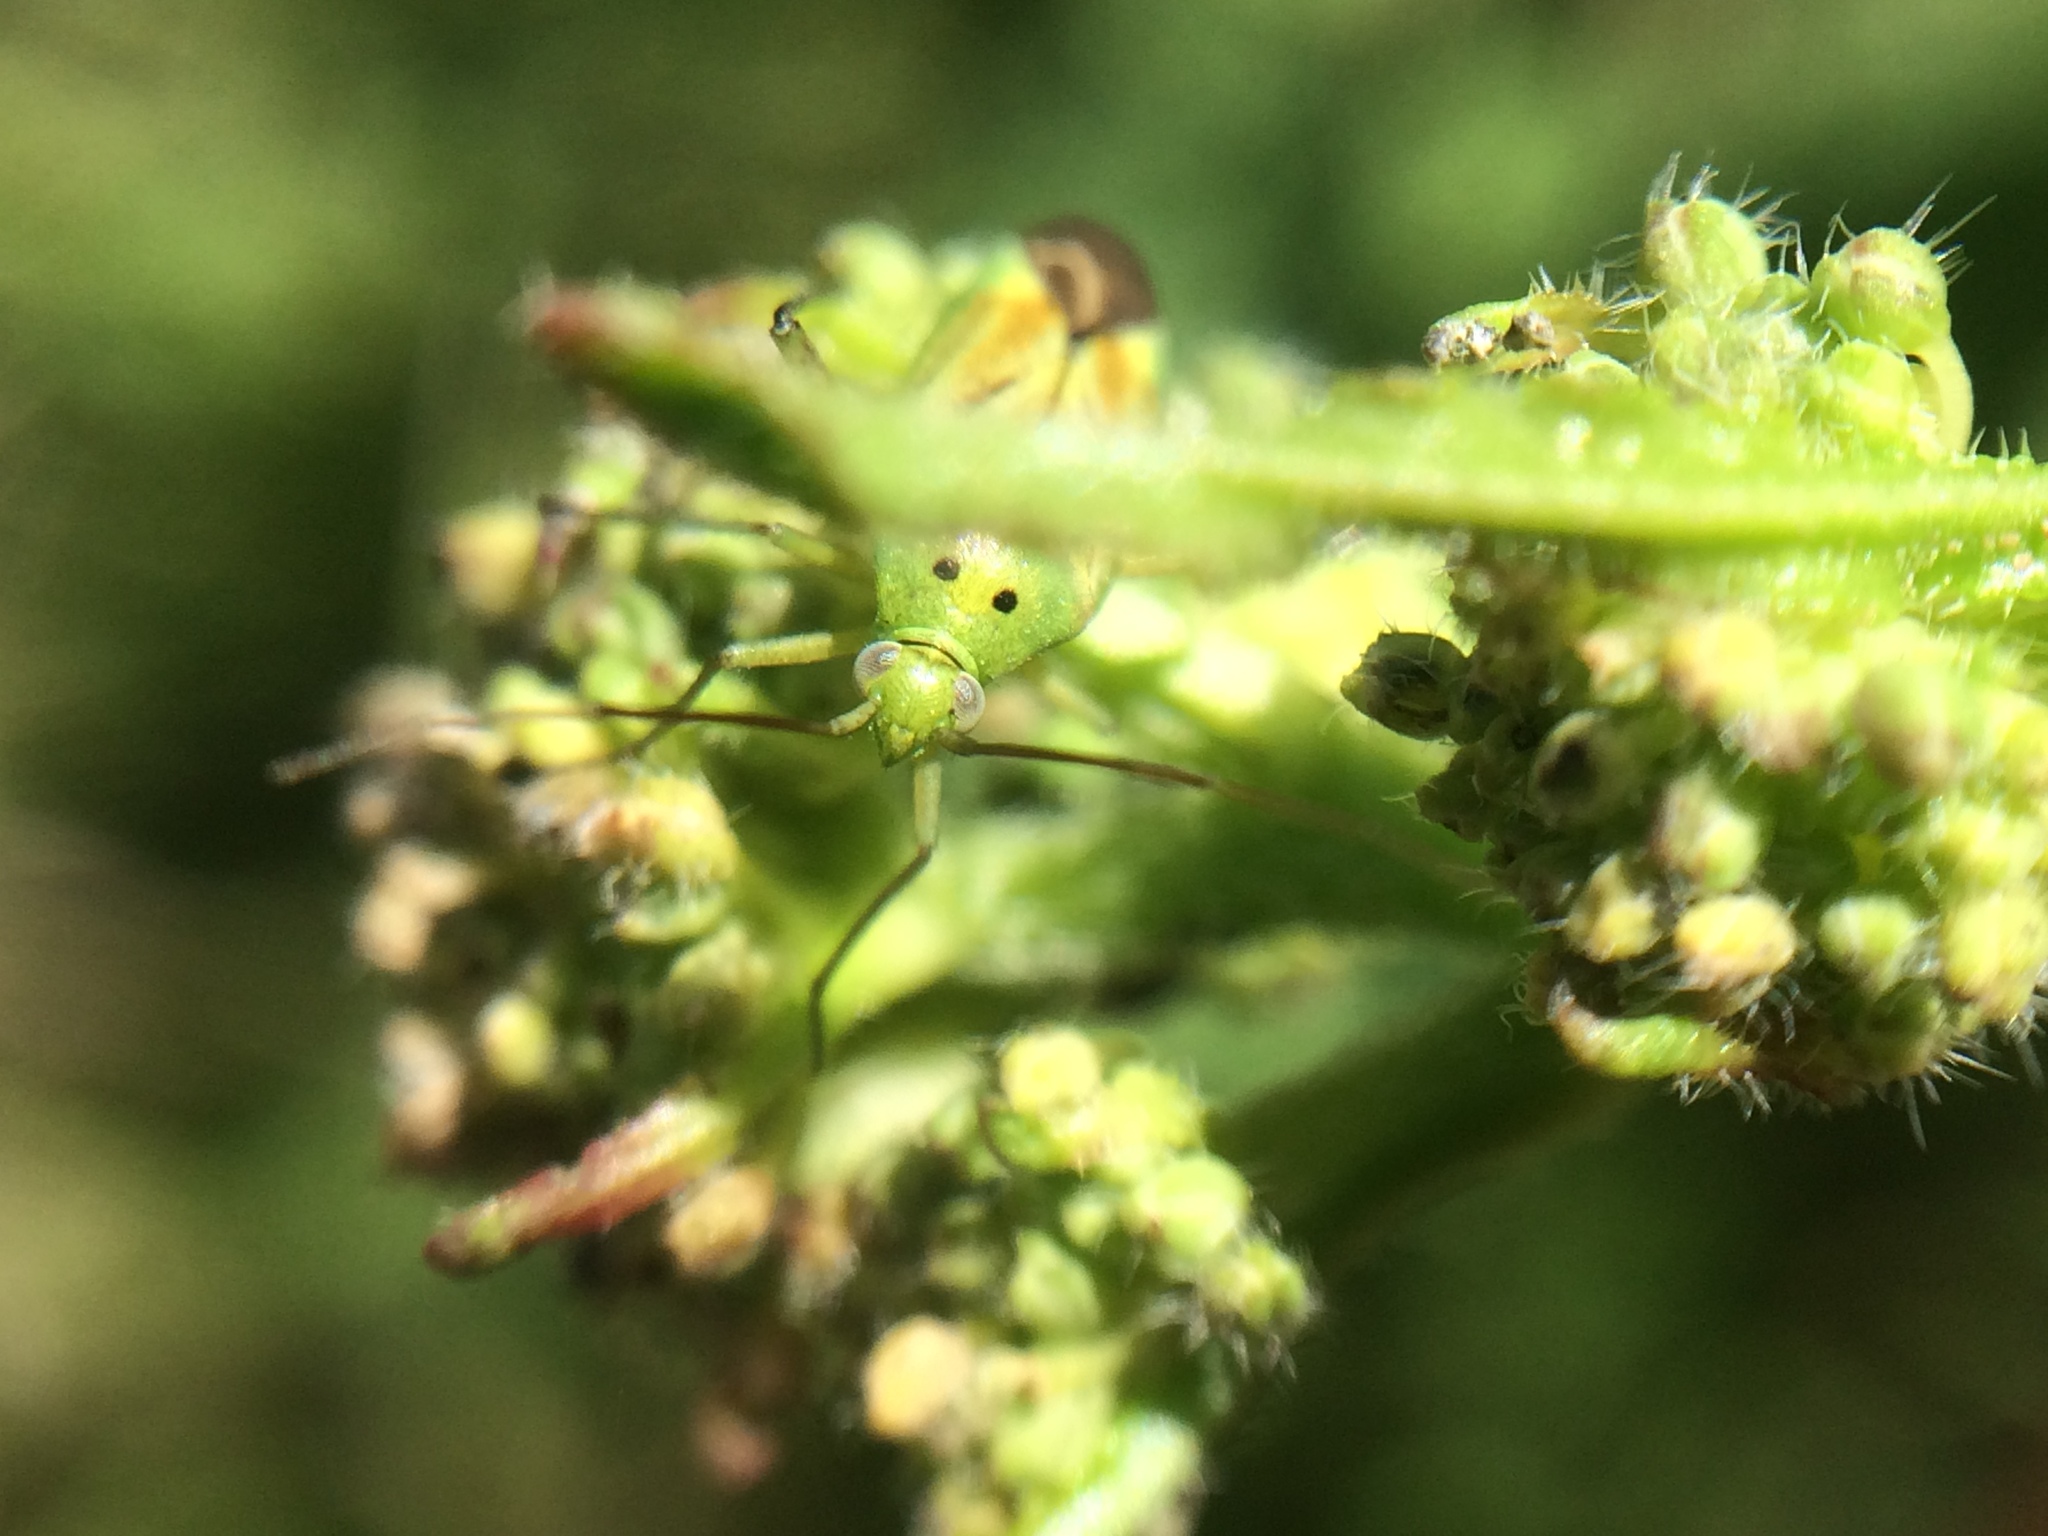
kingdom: Animalia
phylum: Arthropoda
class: Insecta
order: Hemiptera
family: Miridae
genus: Closterotomus
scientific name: Closterotomus norvegicus
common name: Plant bug
